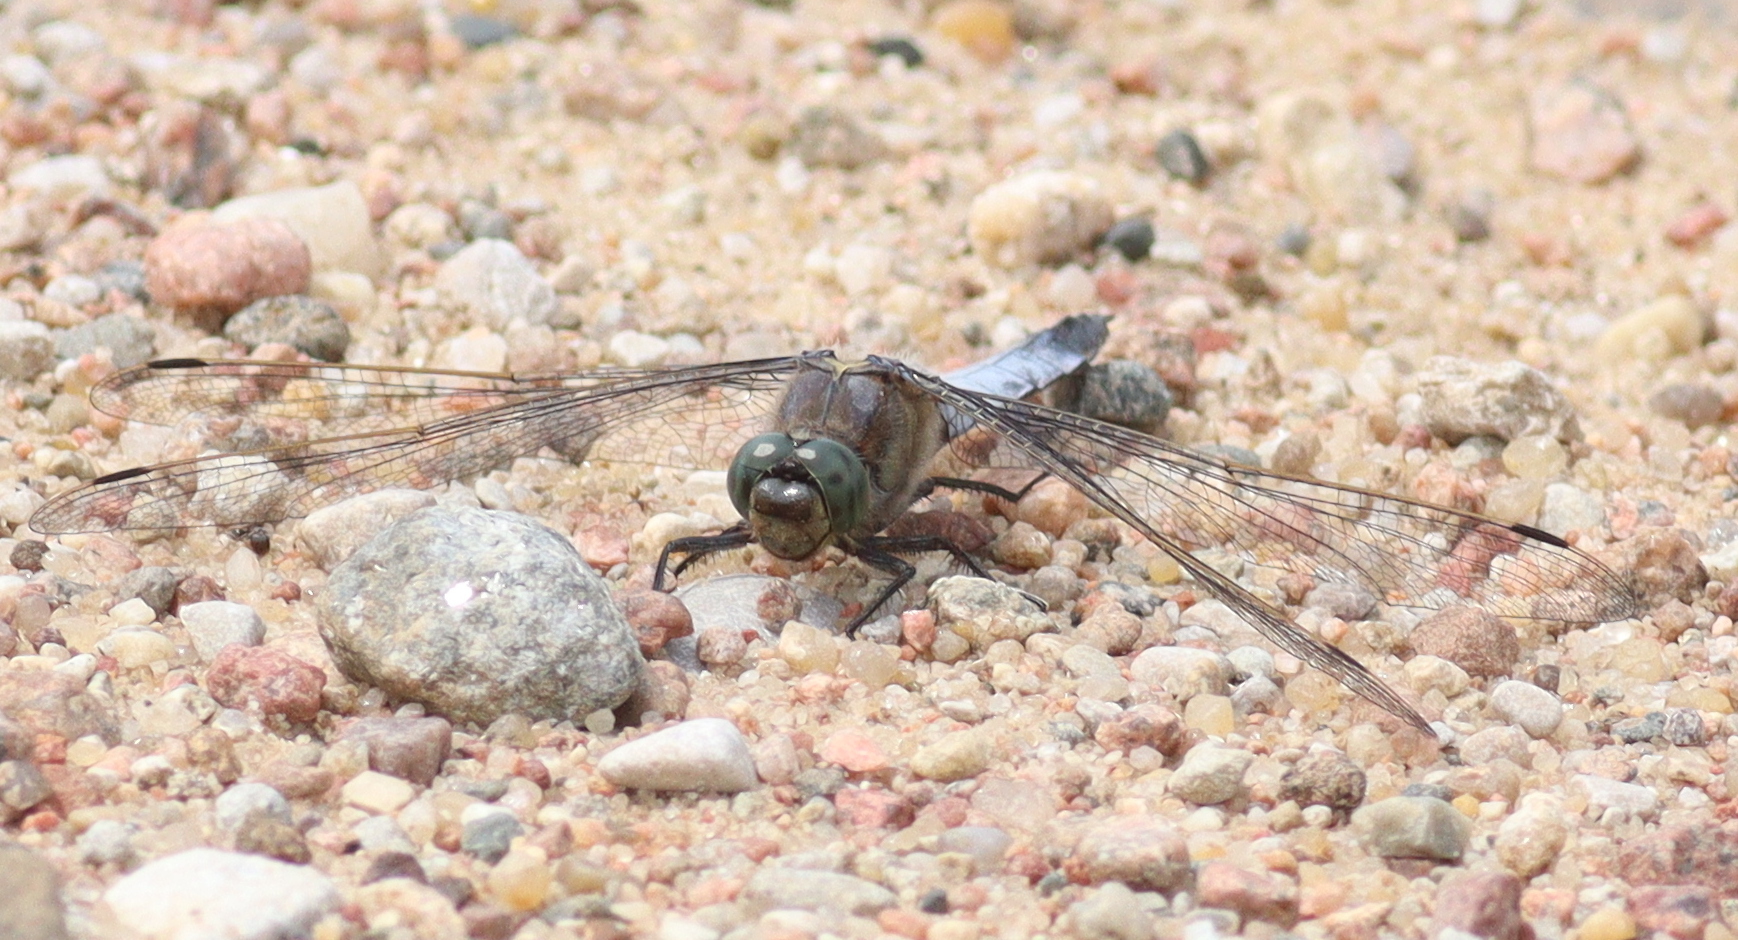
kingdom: Animalia
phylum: Arthropoda
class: Insecta
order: Odonata
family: Libellulidae
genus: Orthetrum
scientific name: Orthetrum cancellatum
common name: Black-tailed skimmer
